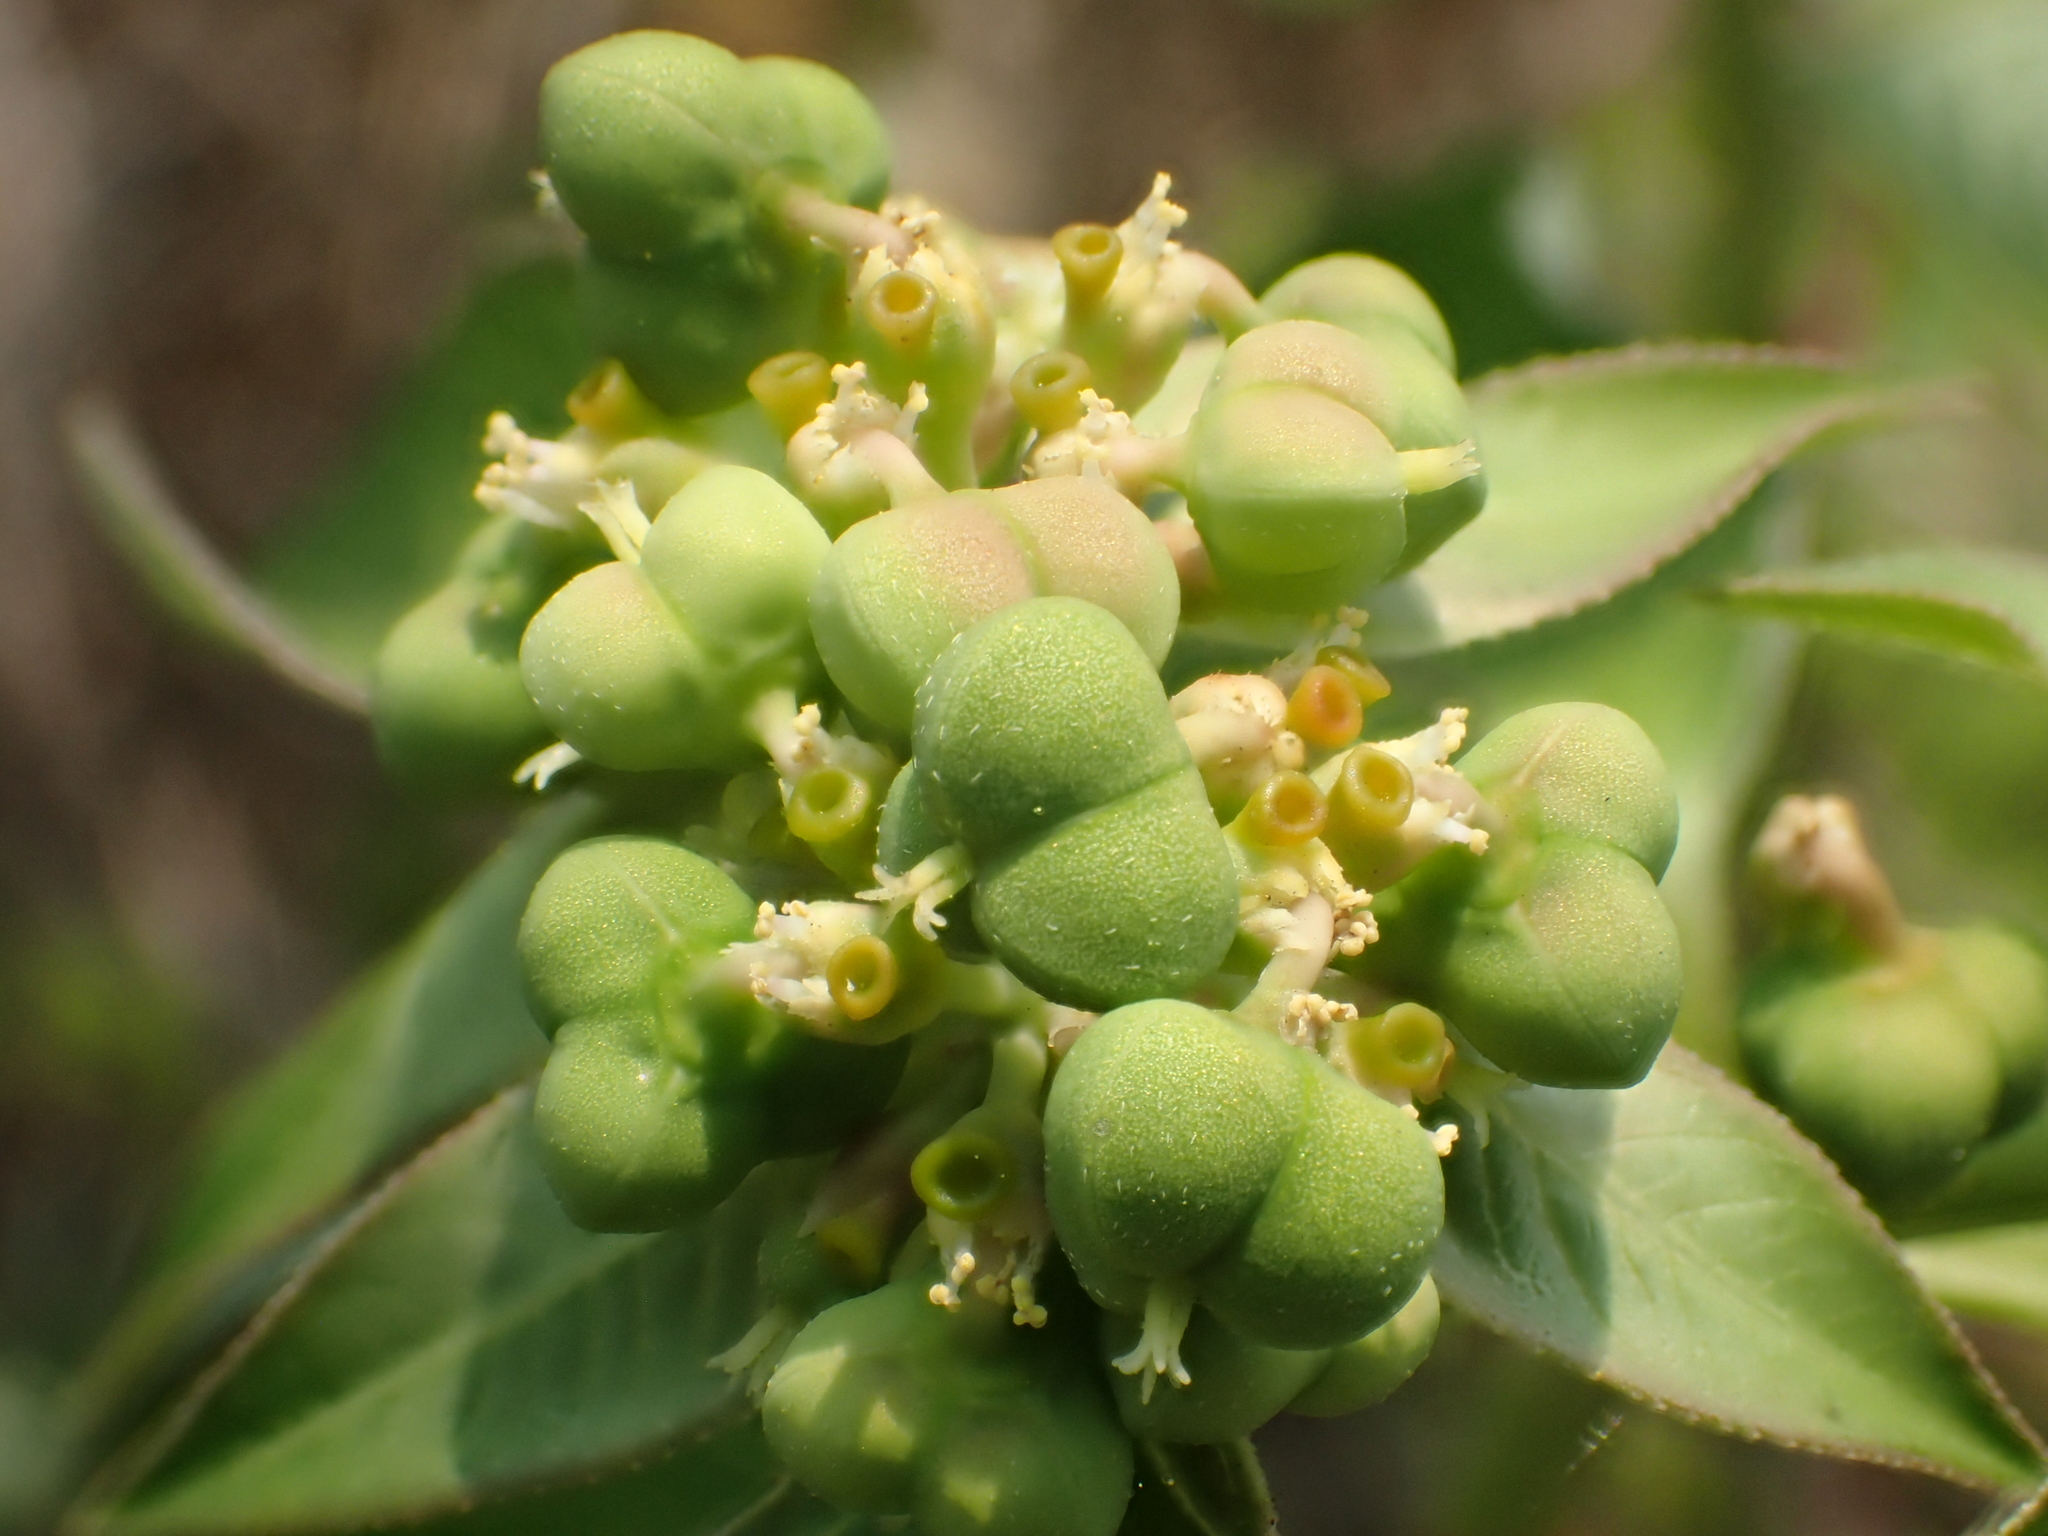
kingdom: Plantae
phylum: Tracheophyta
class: Magnoliopsida
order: Malpighiales
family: Euphorbiaceae
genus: Euphorbia
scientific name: Euphorbia heterophylla
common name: Mexican fireplant
